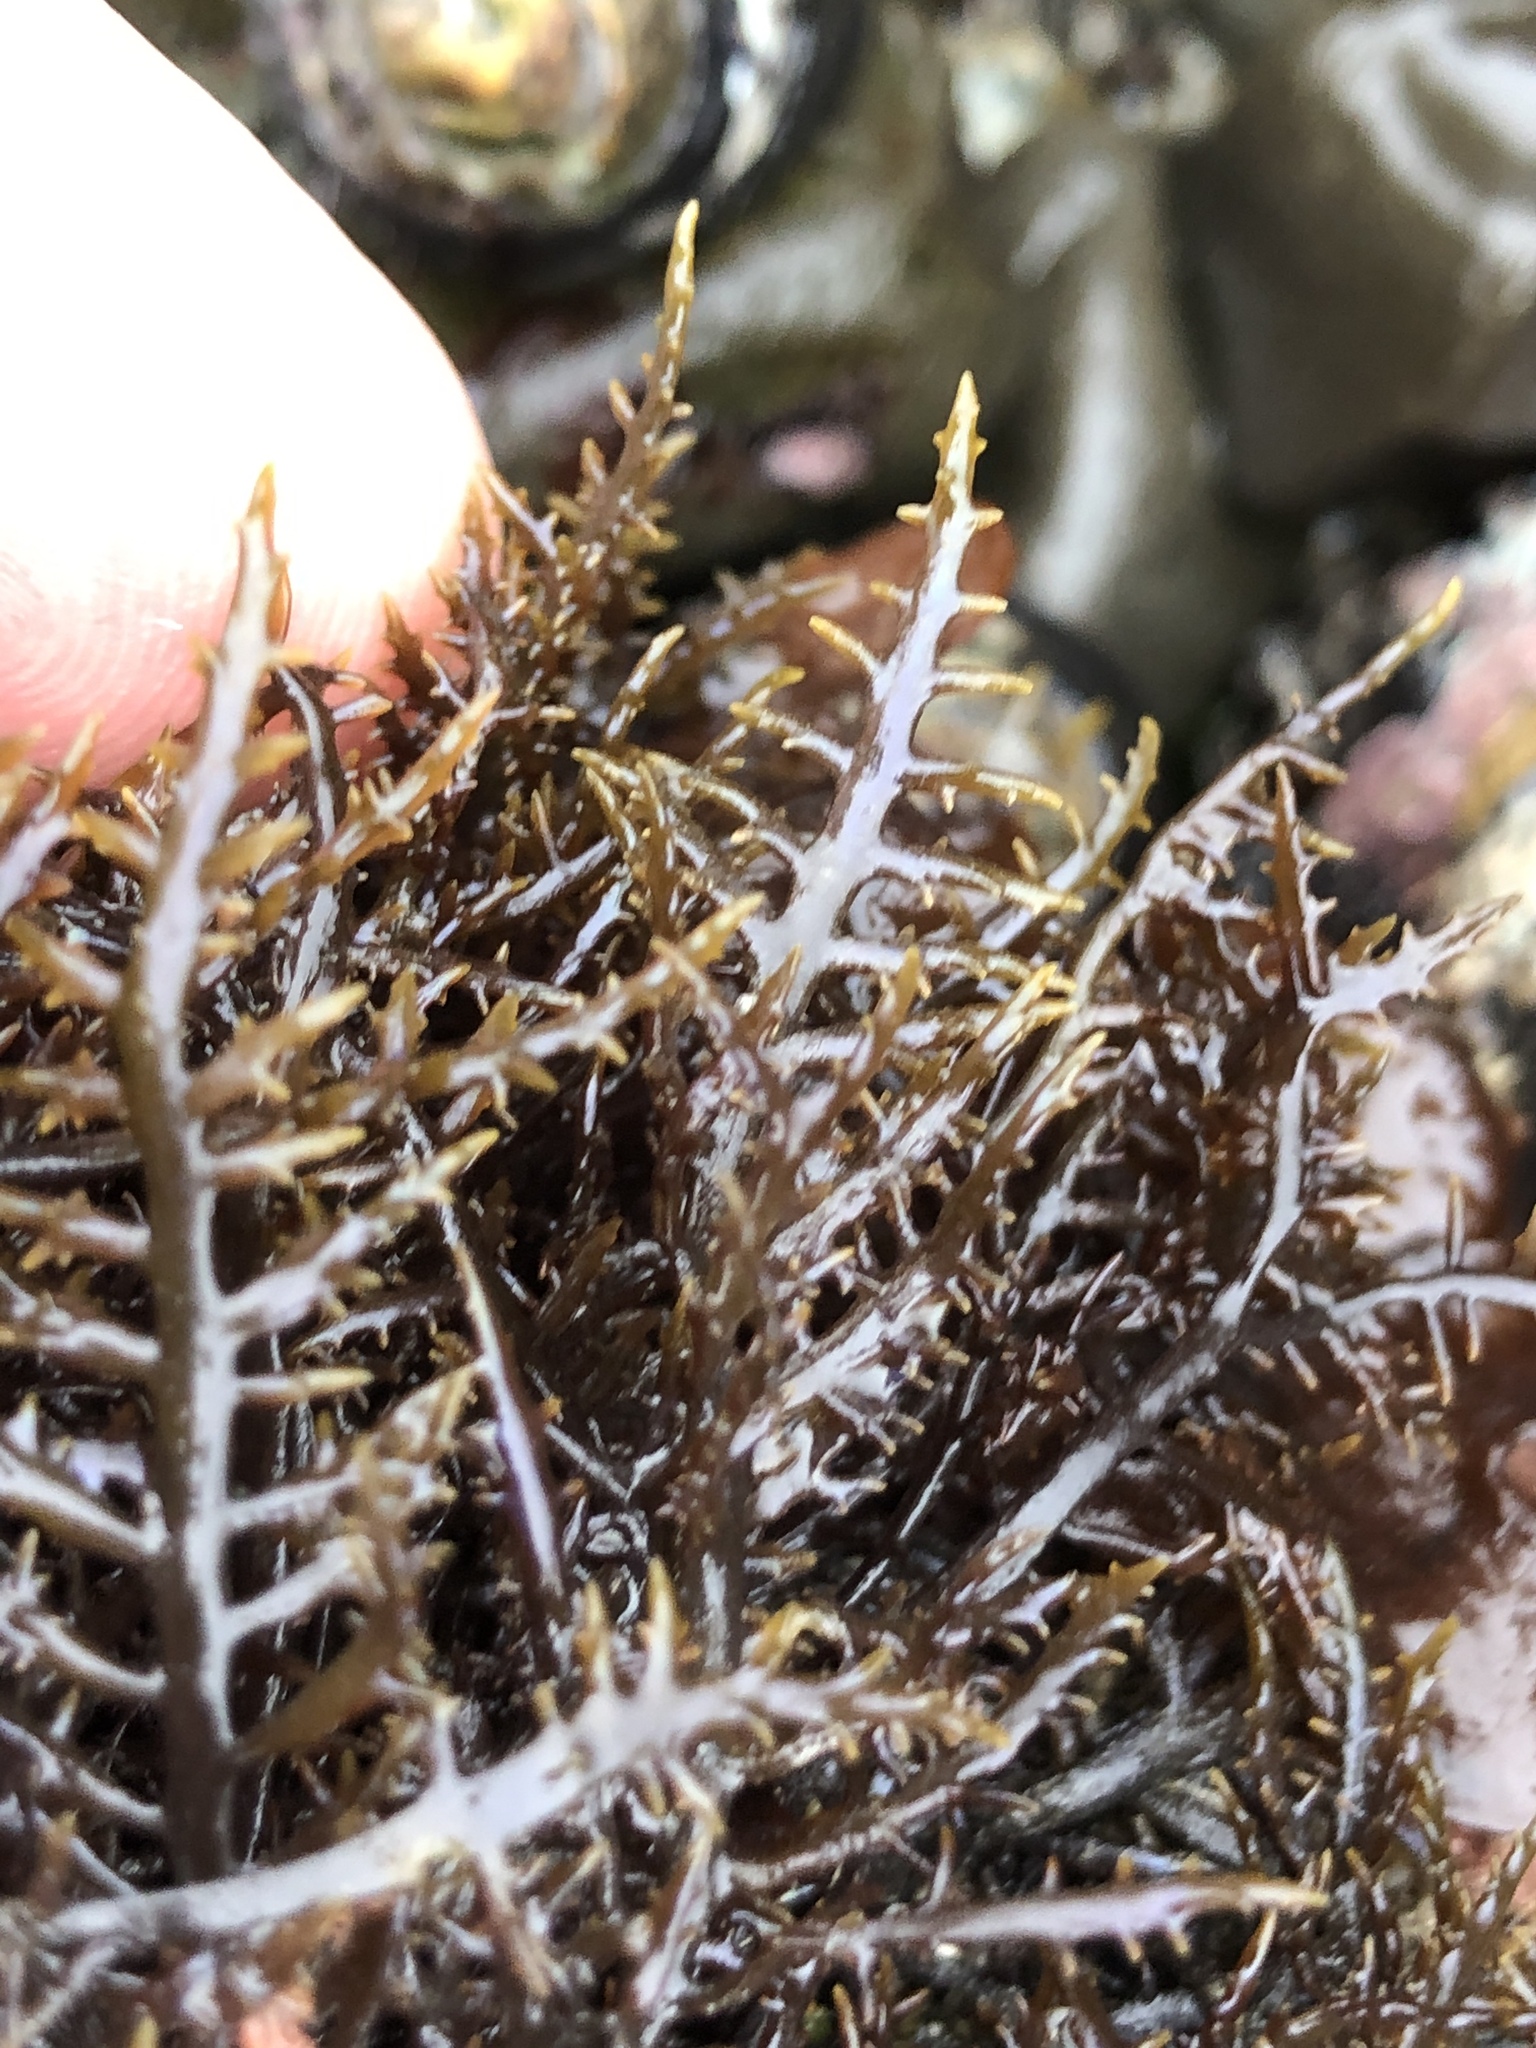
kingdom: Plantae
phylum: Rhodophyta
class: Florideophyceae
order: Gigartinales
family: Gigartinaceae
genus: Chondracanthus
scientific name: Chondracanthus canaliculatus
